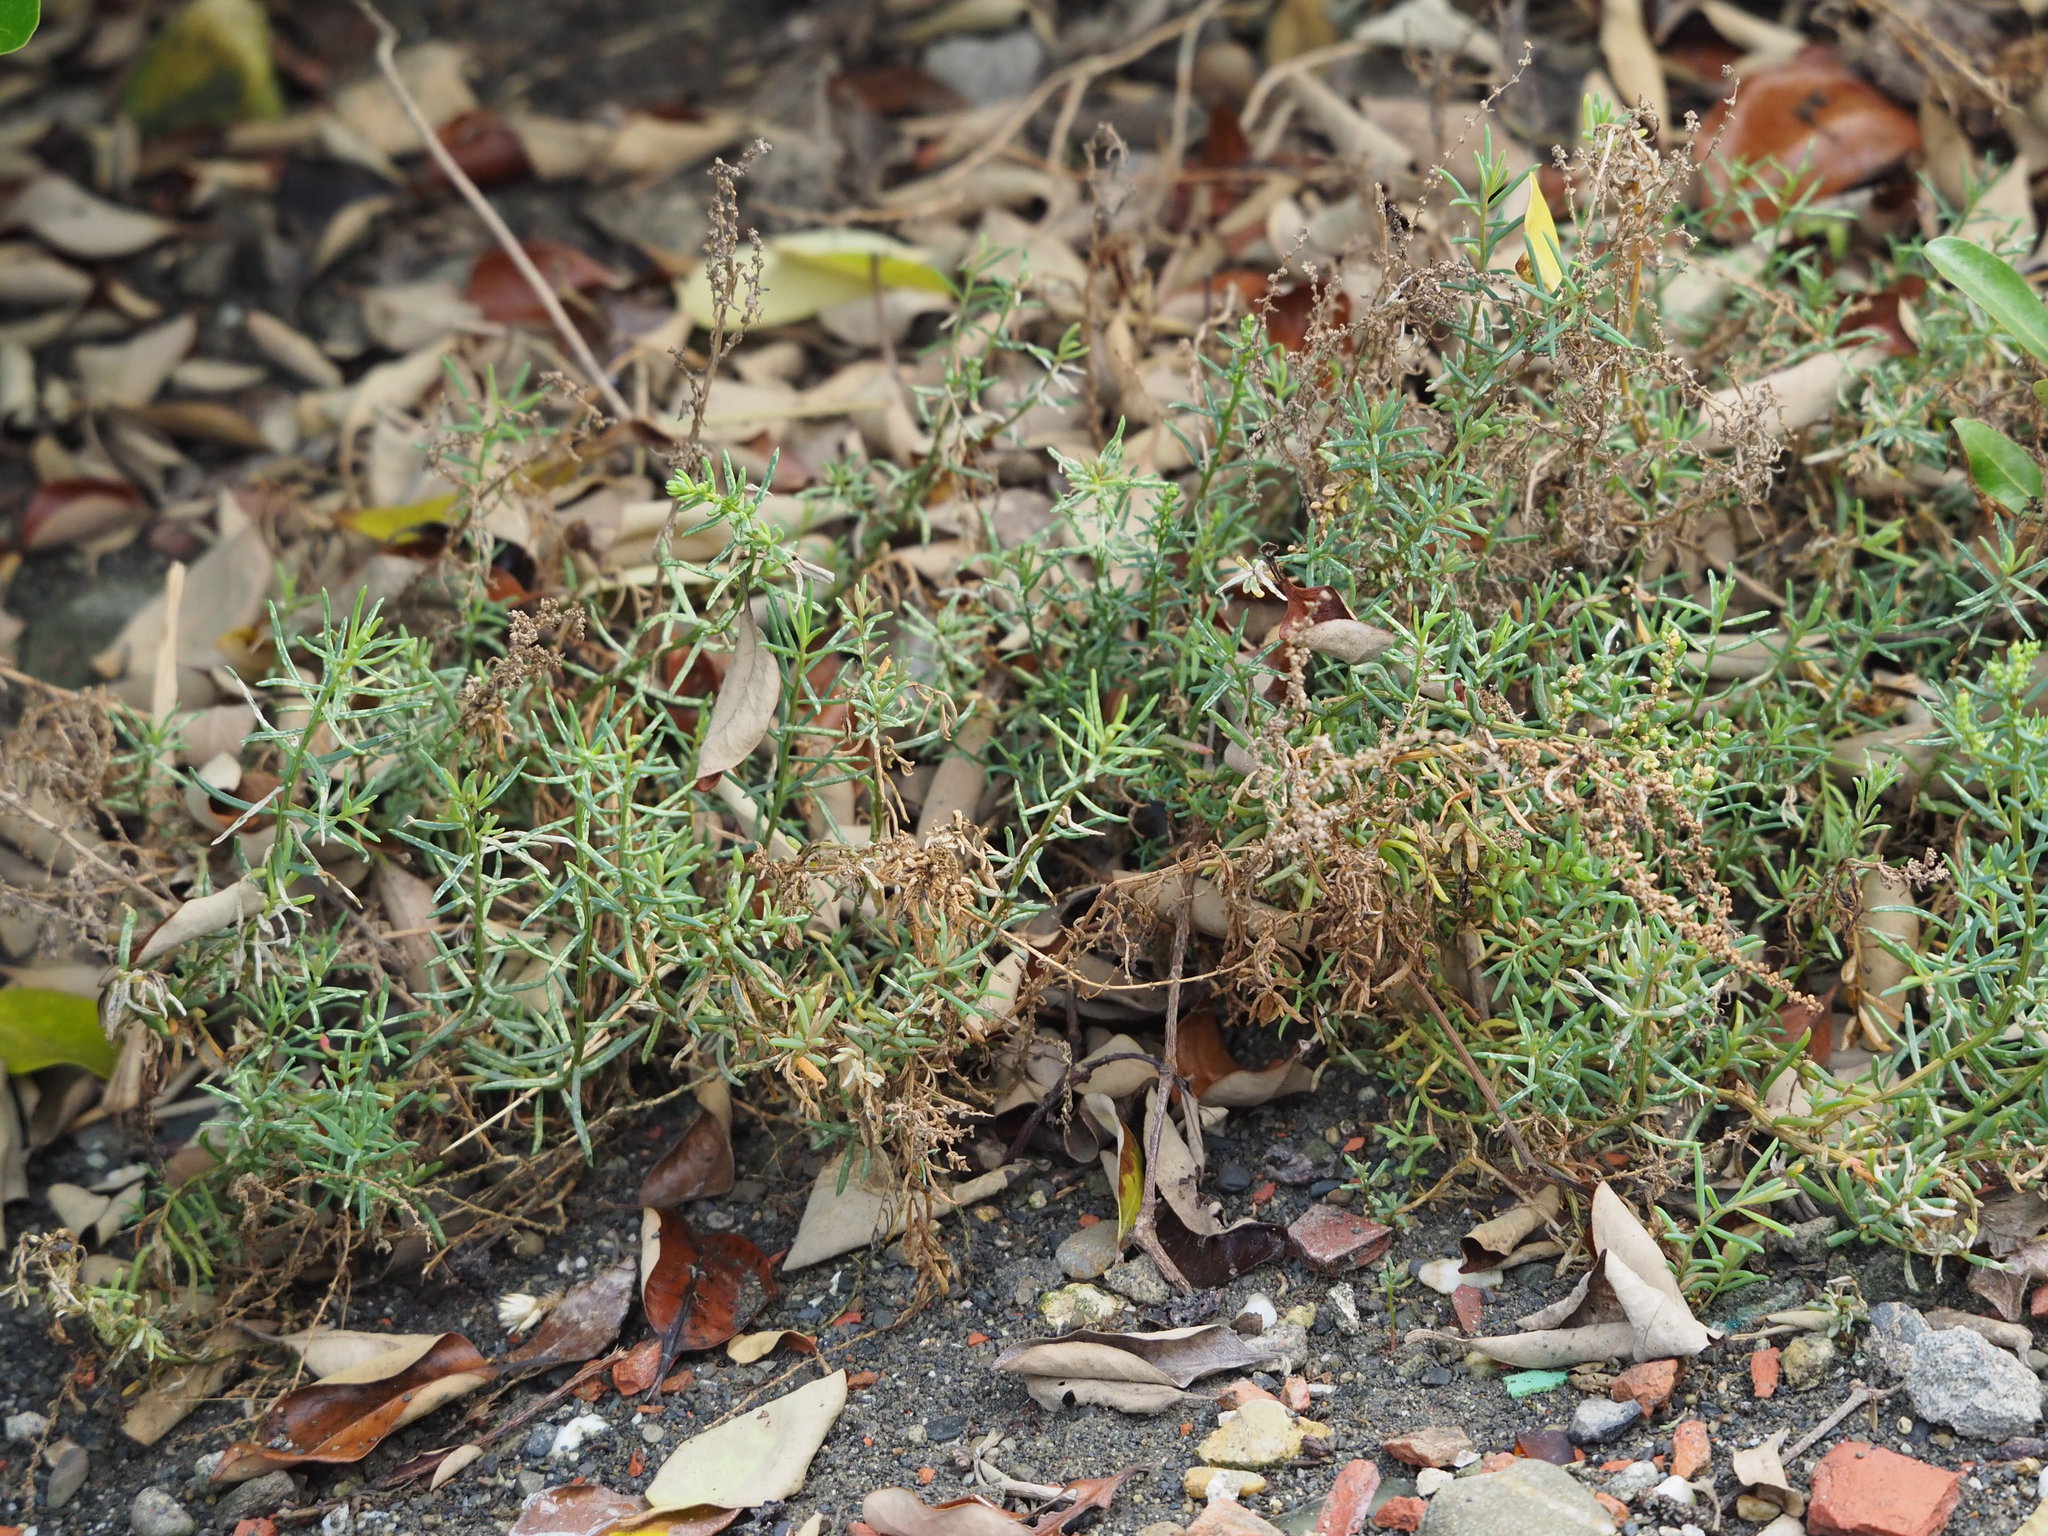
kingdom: Plantae
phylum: Tracheophyta
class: Magnoliopsida
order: Caryophyllales
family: Amaranthaceae
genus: Suaeda
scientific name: Suaeda maritima
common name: Annual sea-blite
